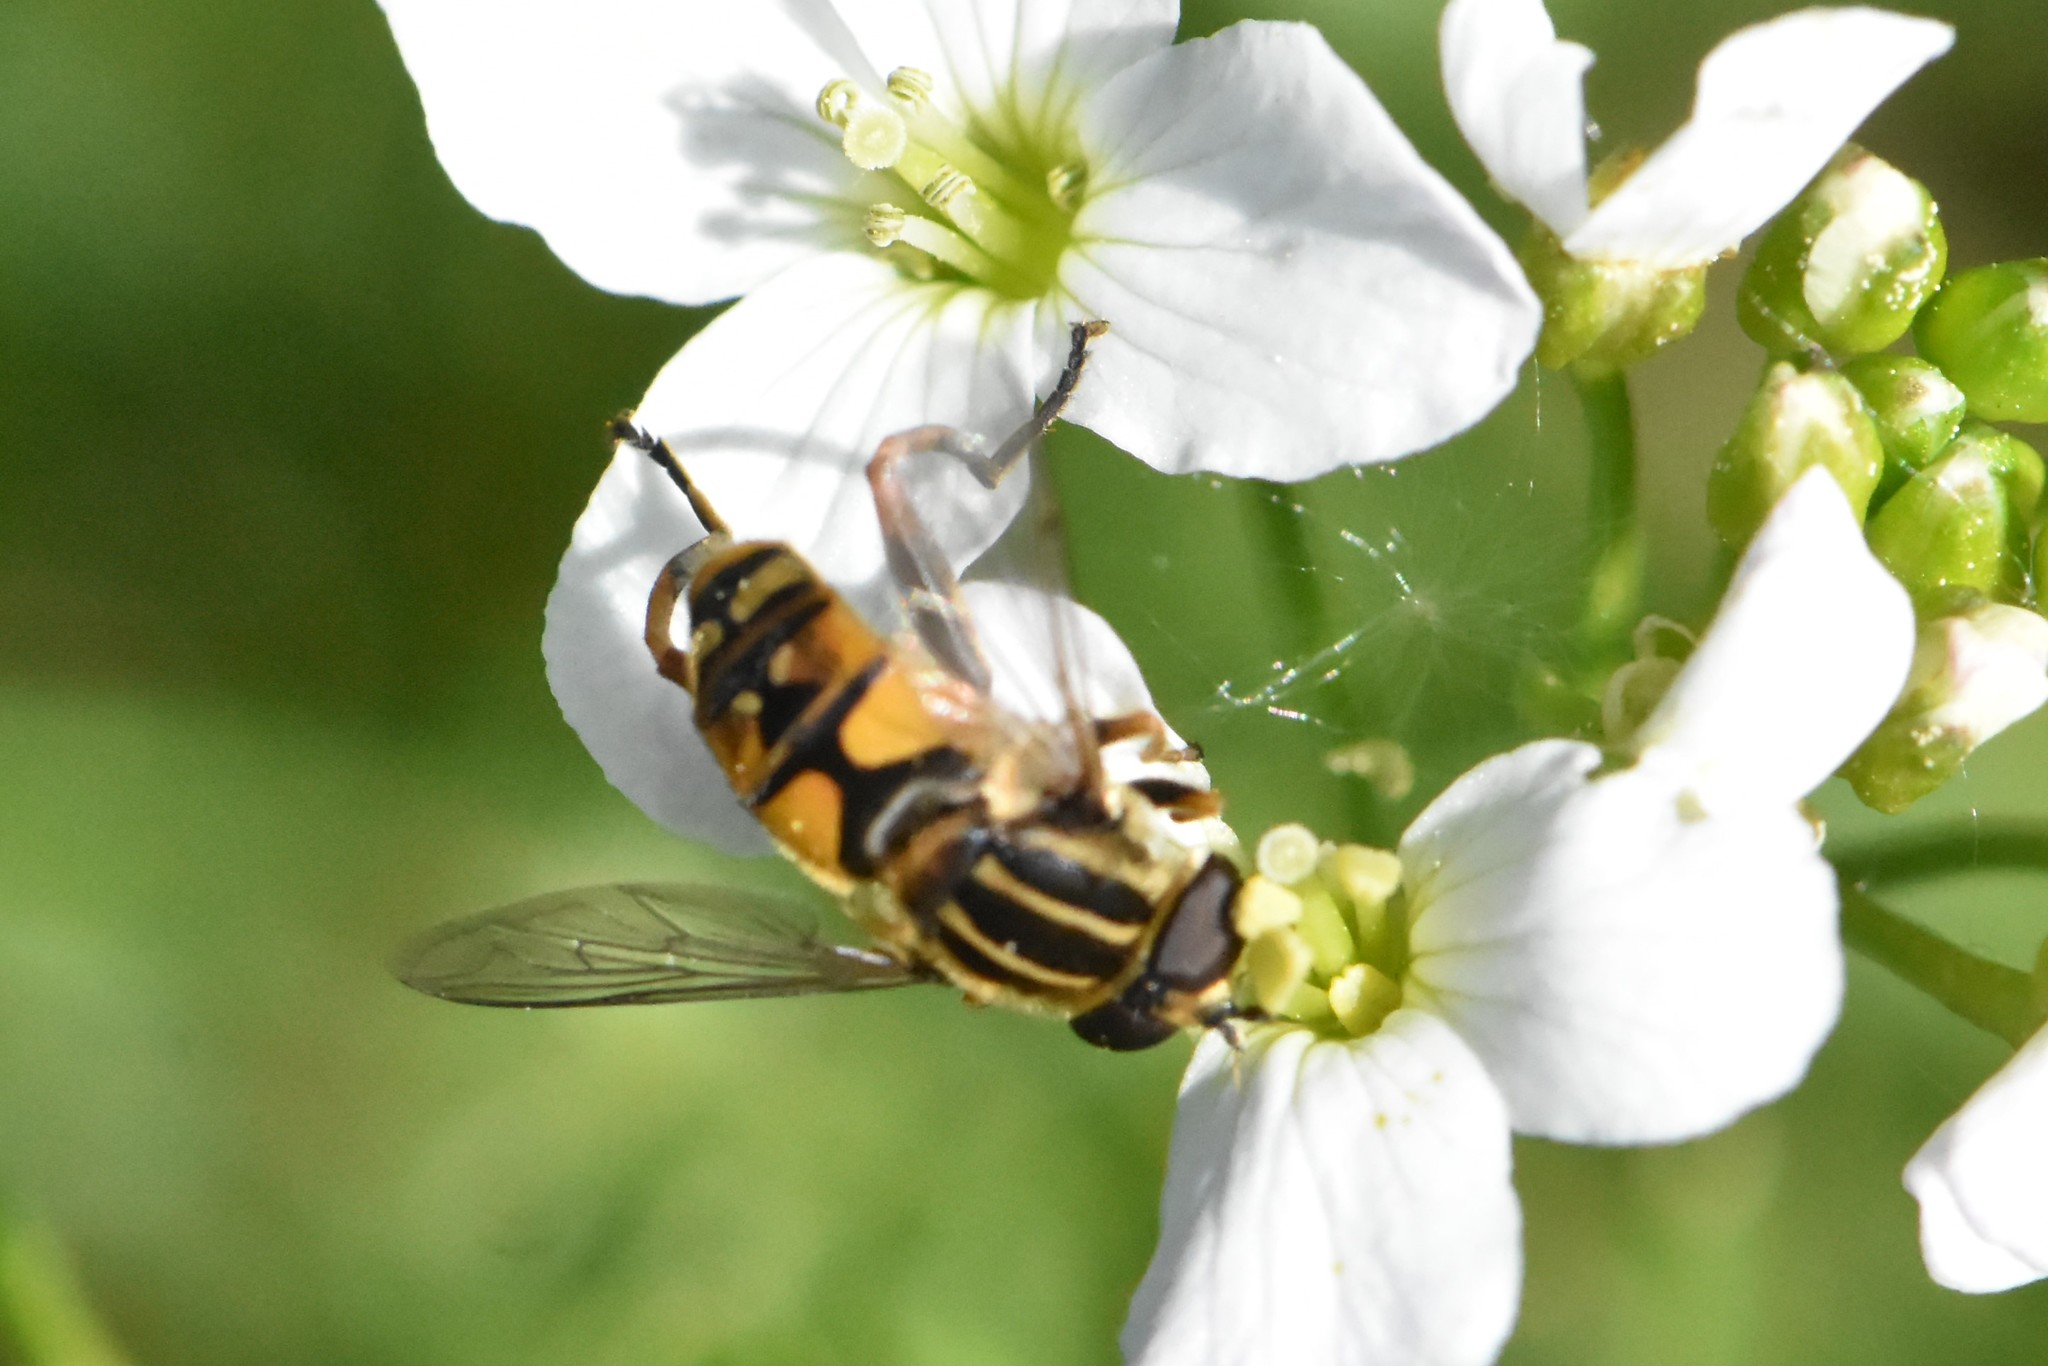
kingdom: Animalia
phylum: Arthropoda
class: Insecta
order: Diptera
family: Syrphidae
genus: Helophilus
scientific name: Helophilus pendulus
